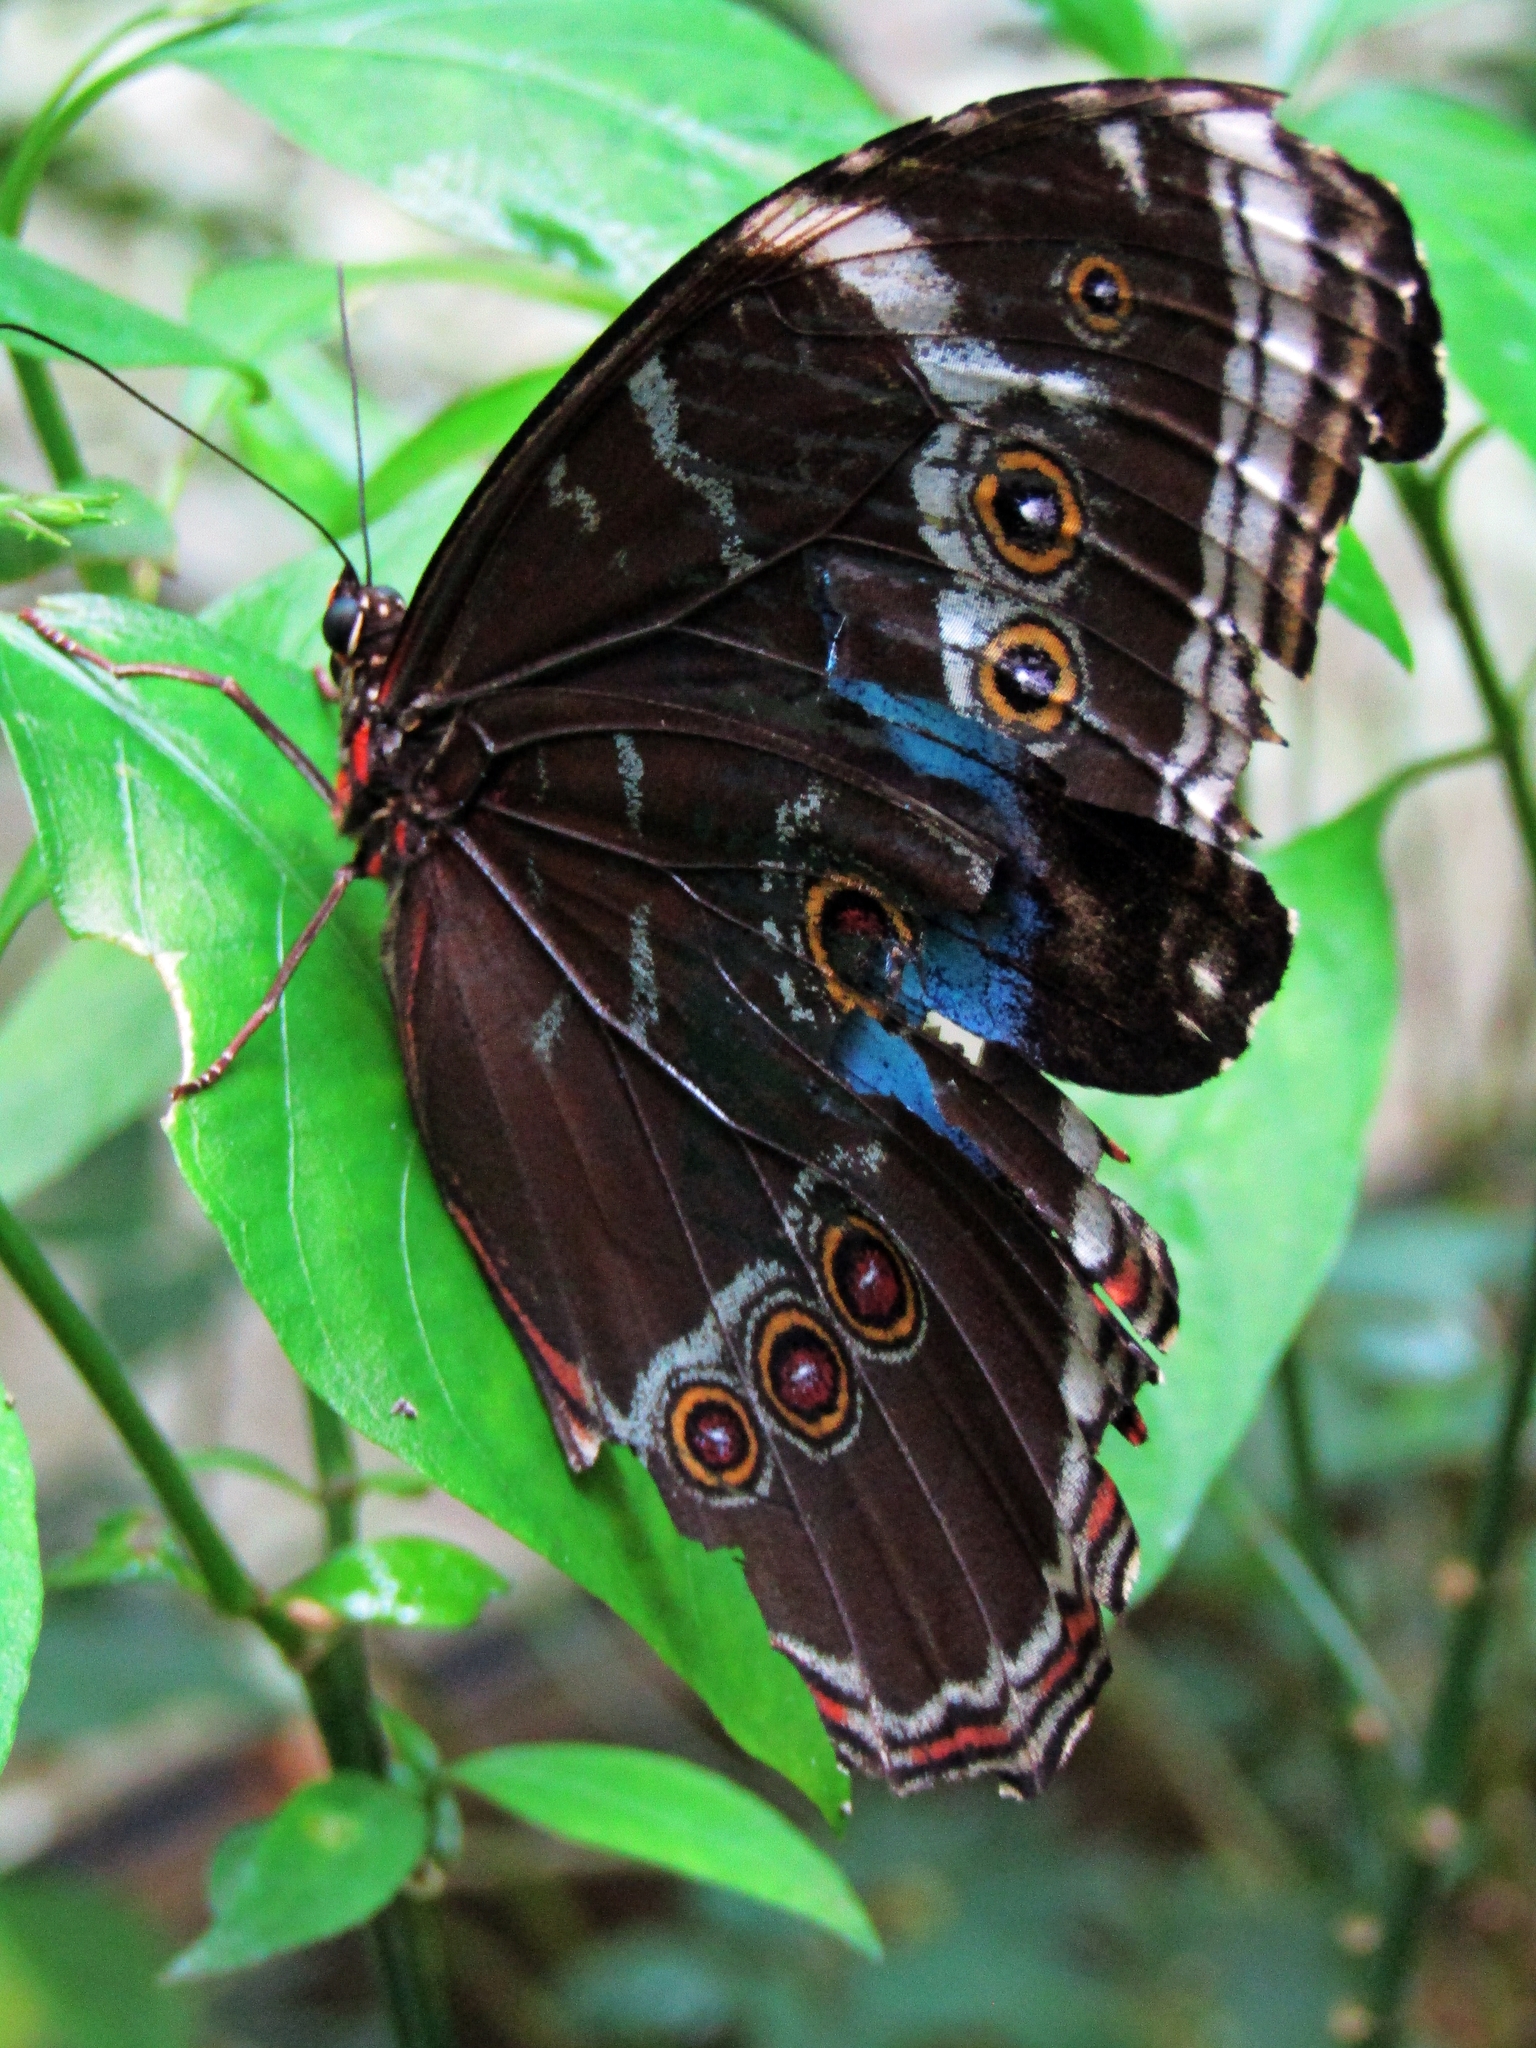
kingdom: Animalia
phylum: Arthropoda
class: Insecta
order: Lepidoptera
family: Nymphalidae
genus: Morpho
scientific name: Morpho helenor
